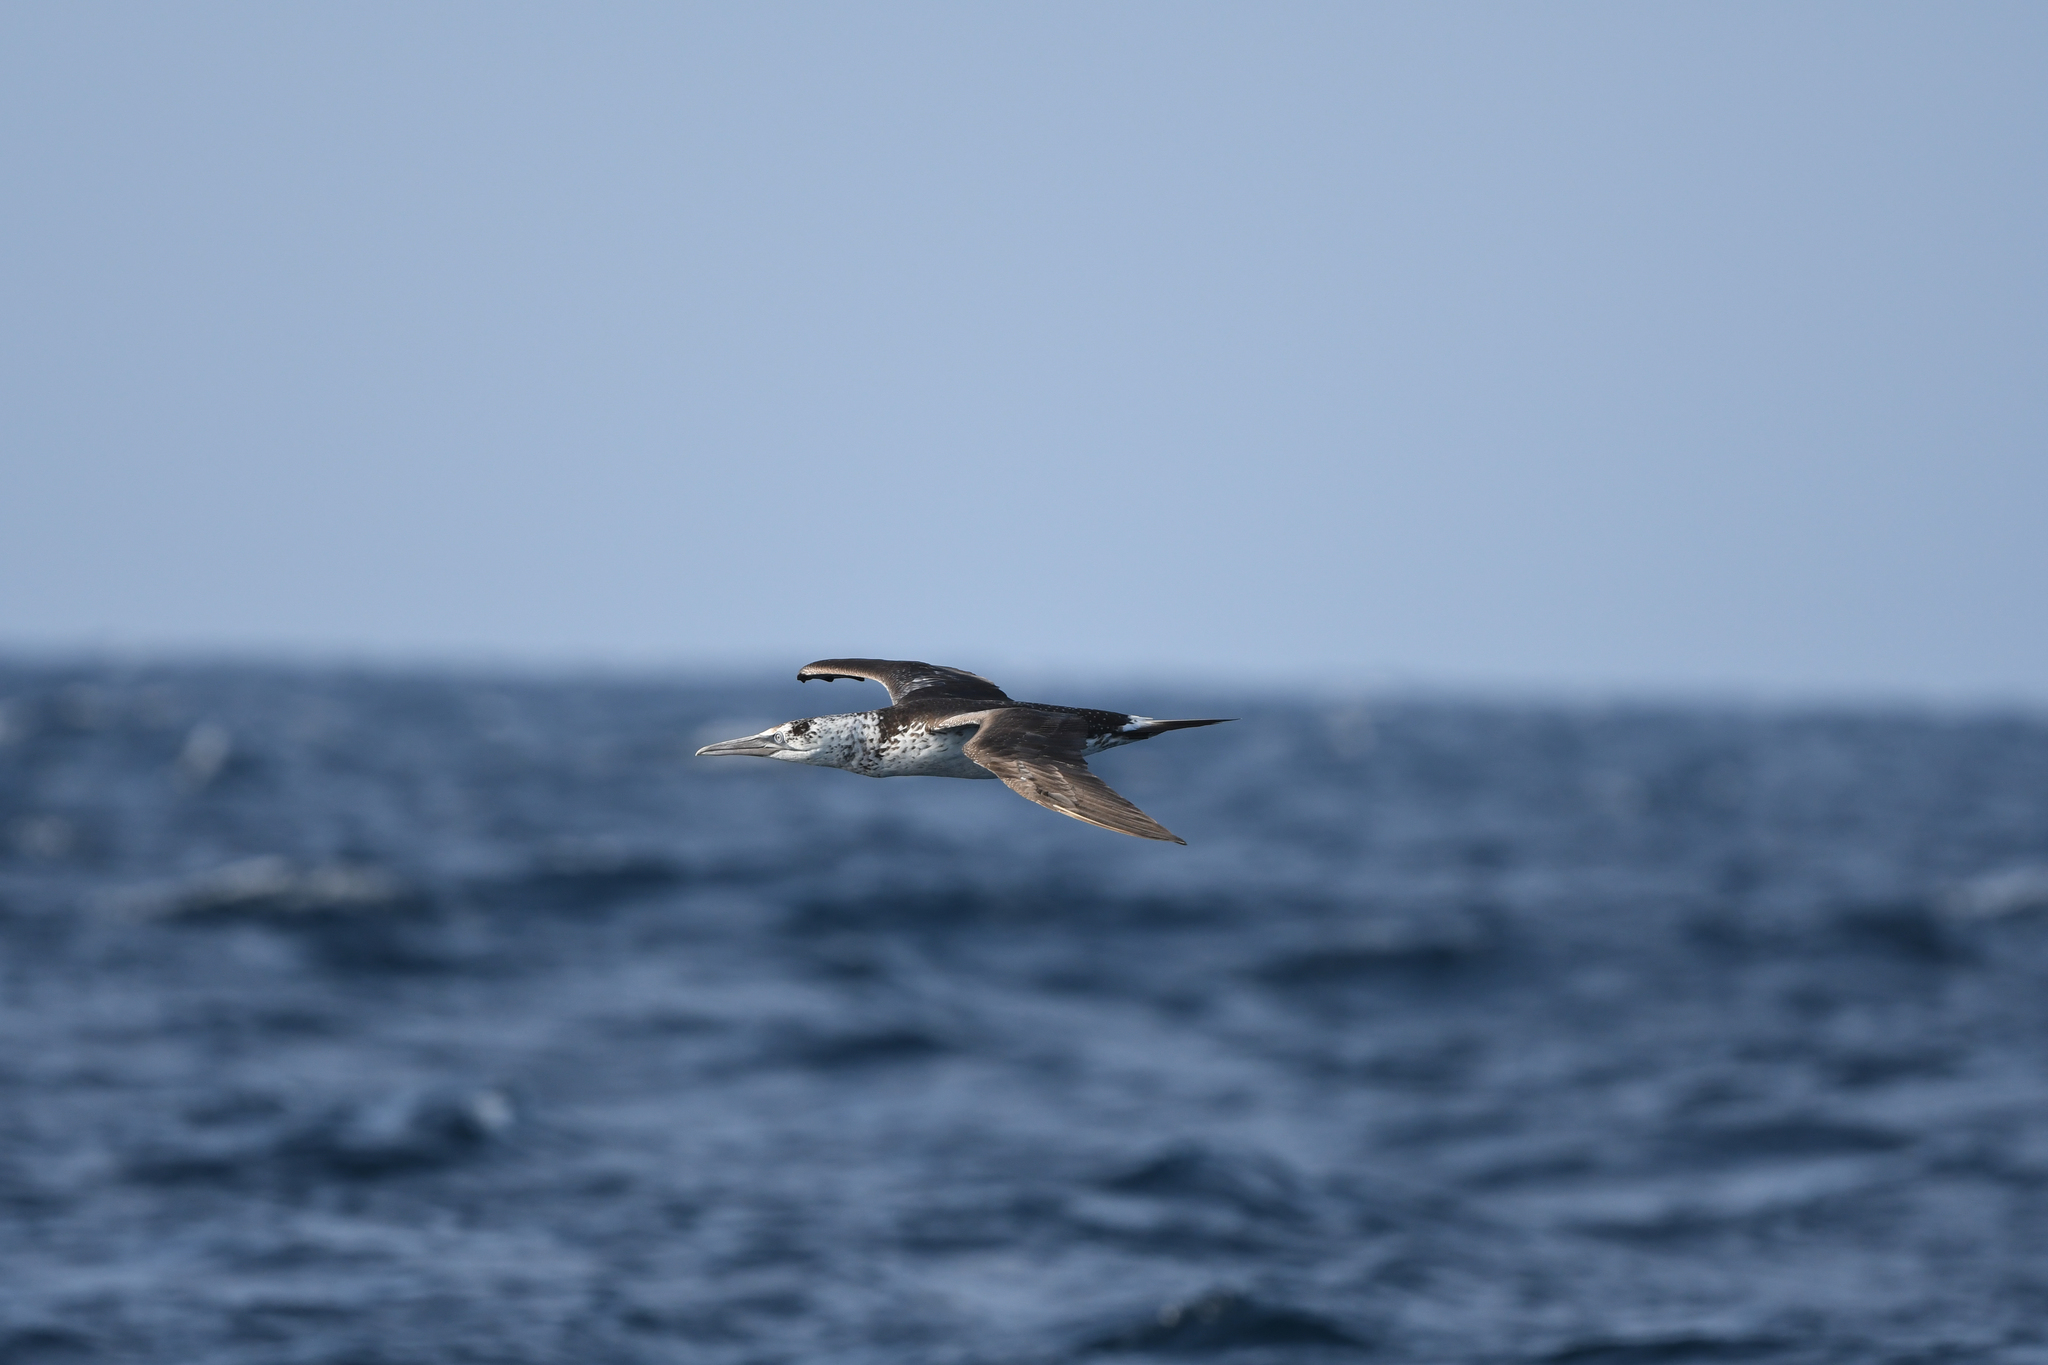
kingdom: Animalia
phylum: Chordata
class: Aves
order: Suliformes
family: Sulidae
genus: Morus
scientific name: Morus bassanus
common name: Northern gannet
